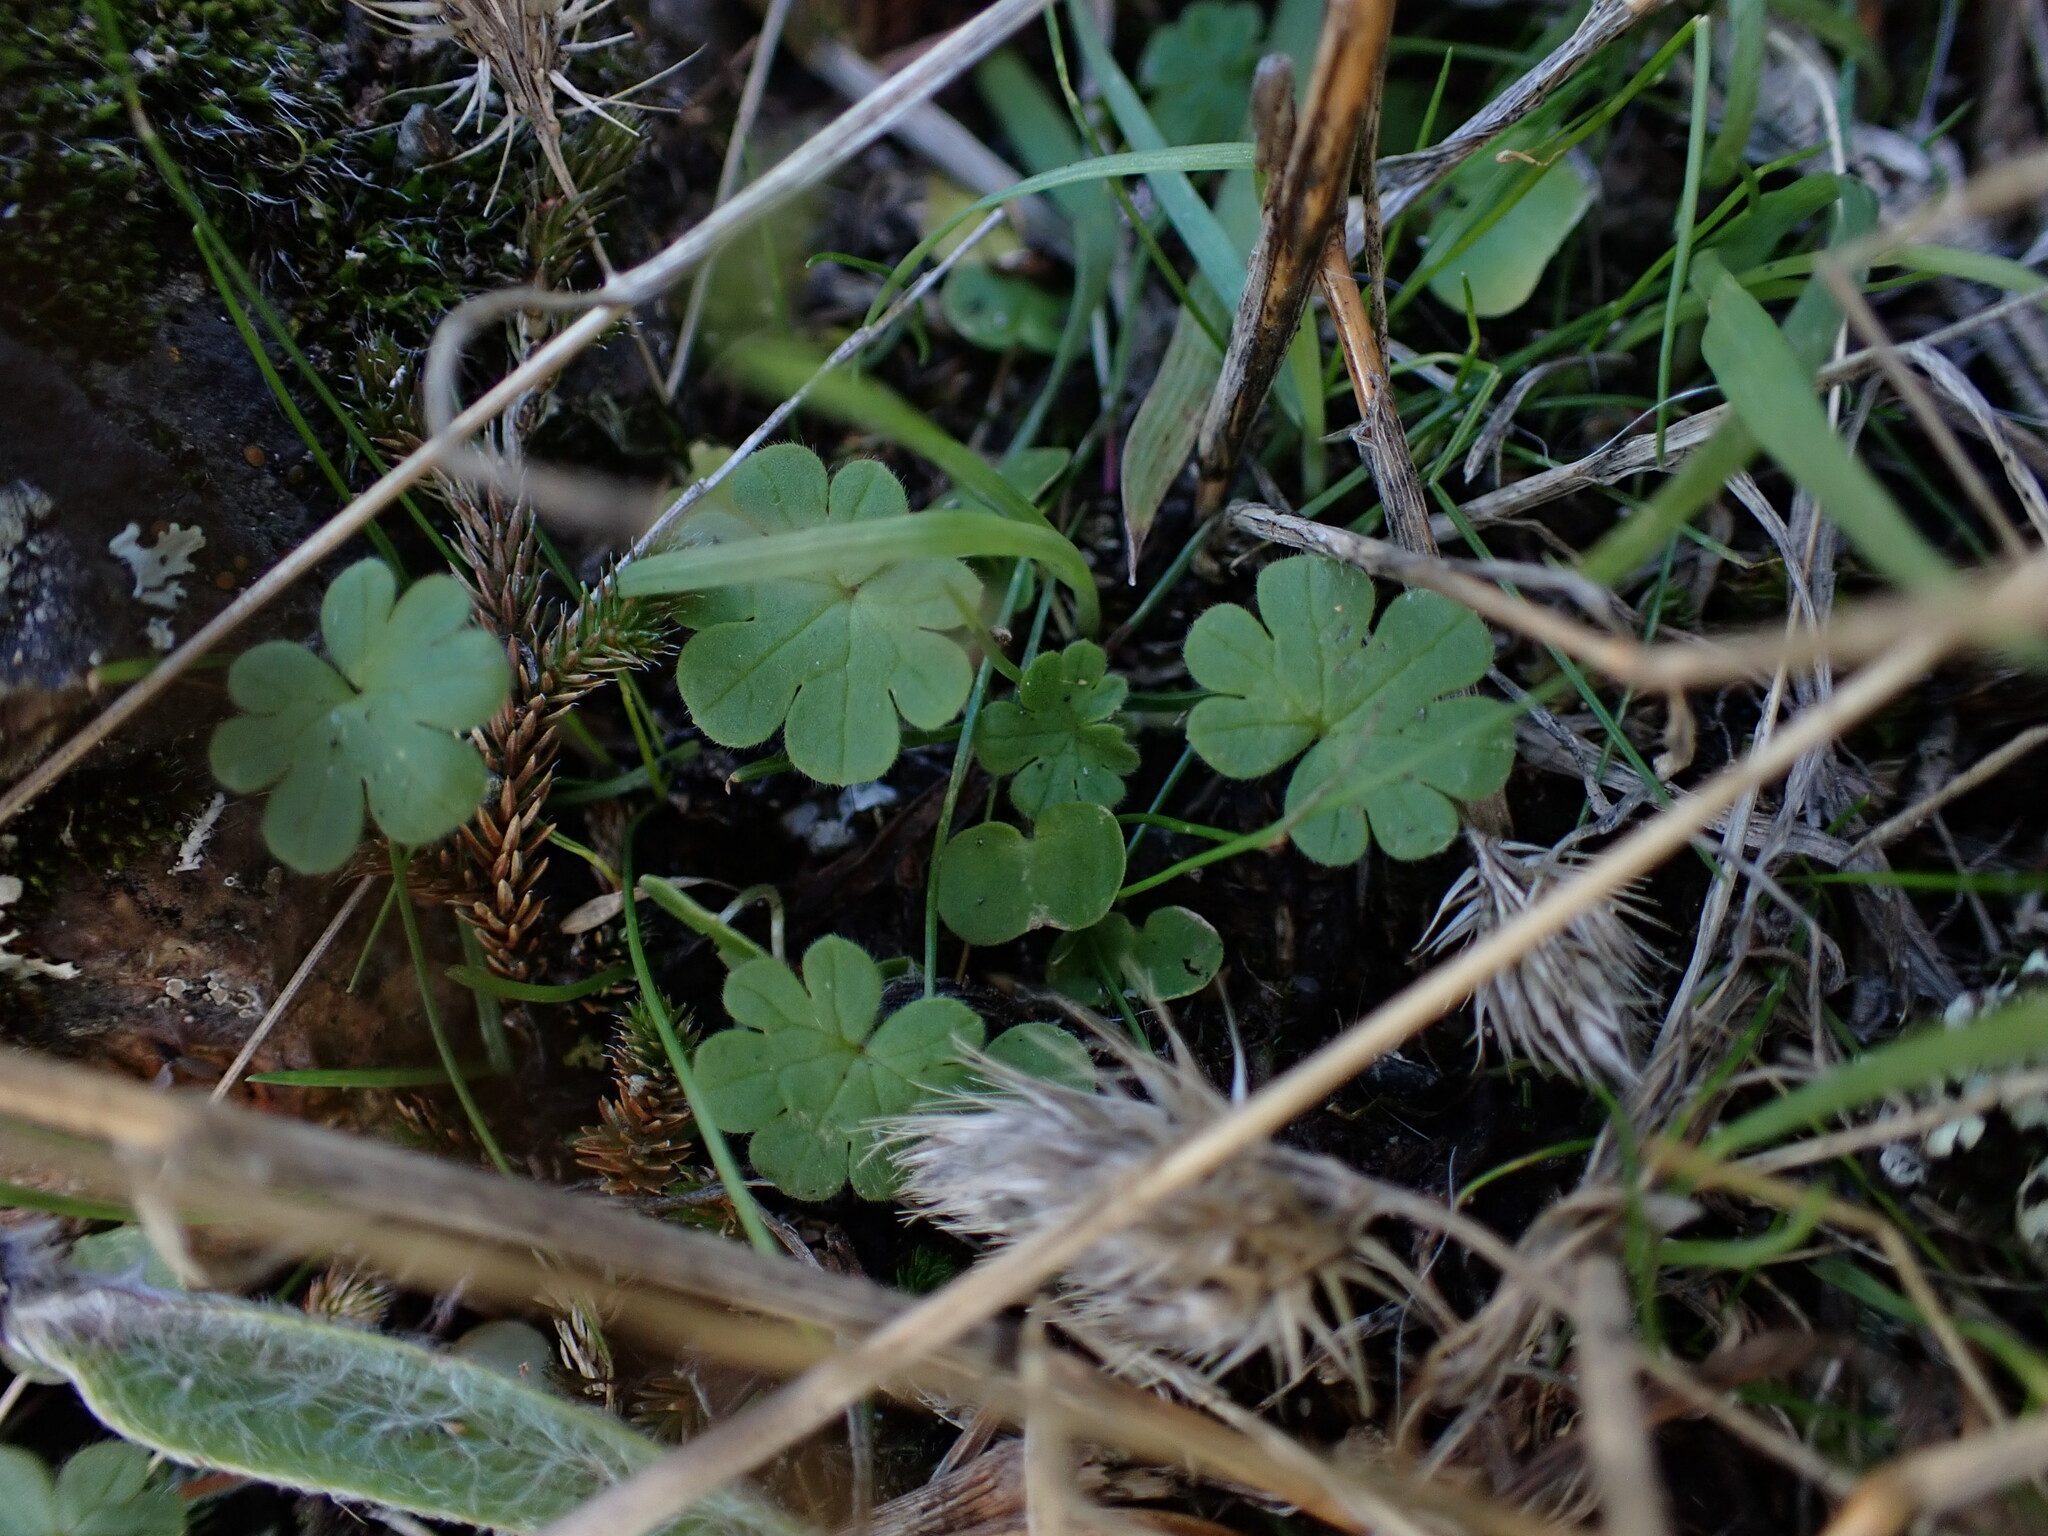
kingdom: Plantae
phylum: Tracheophyta
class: Magnoliopsida
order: Geraniales
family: Geraniaceae
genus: Geranium
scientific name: Geranium molle
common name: Dove's-foot crane's-bill
